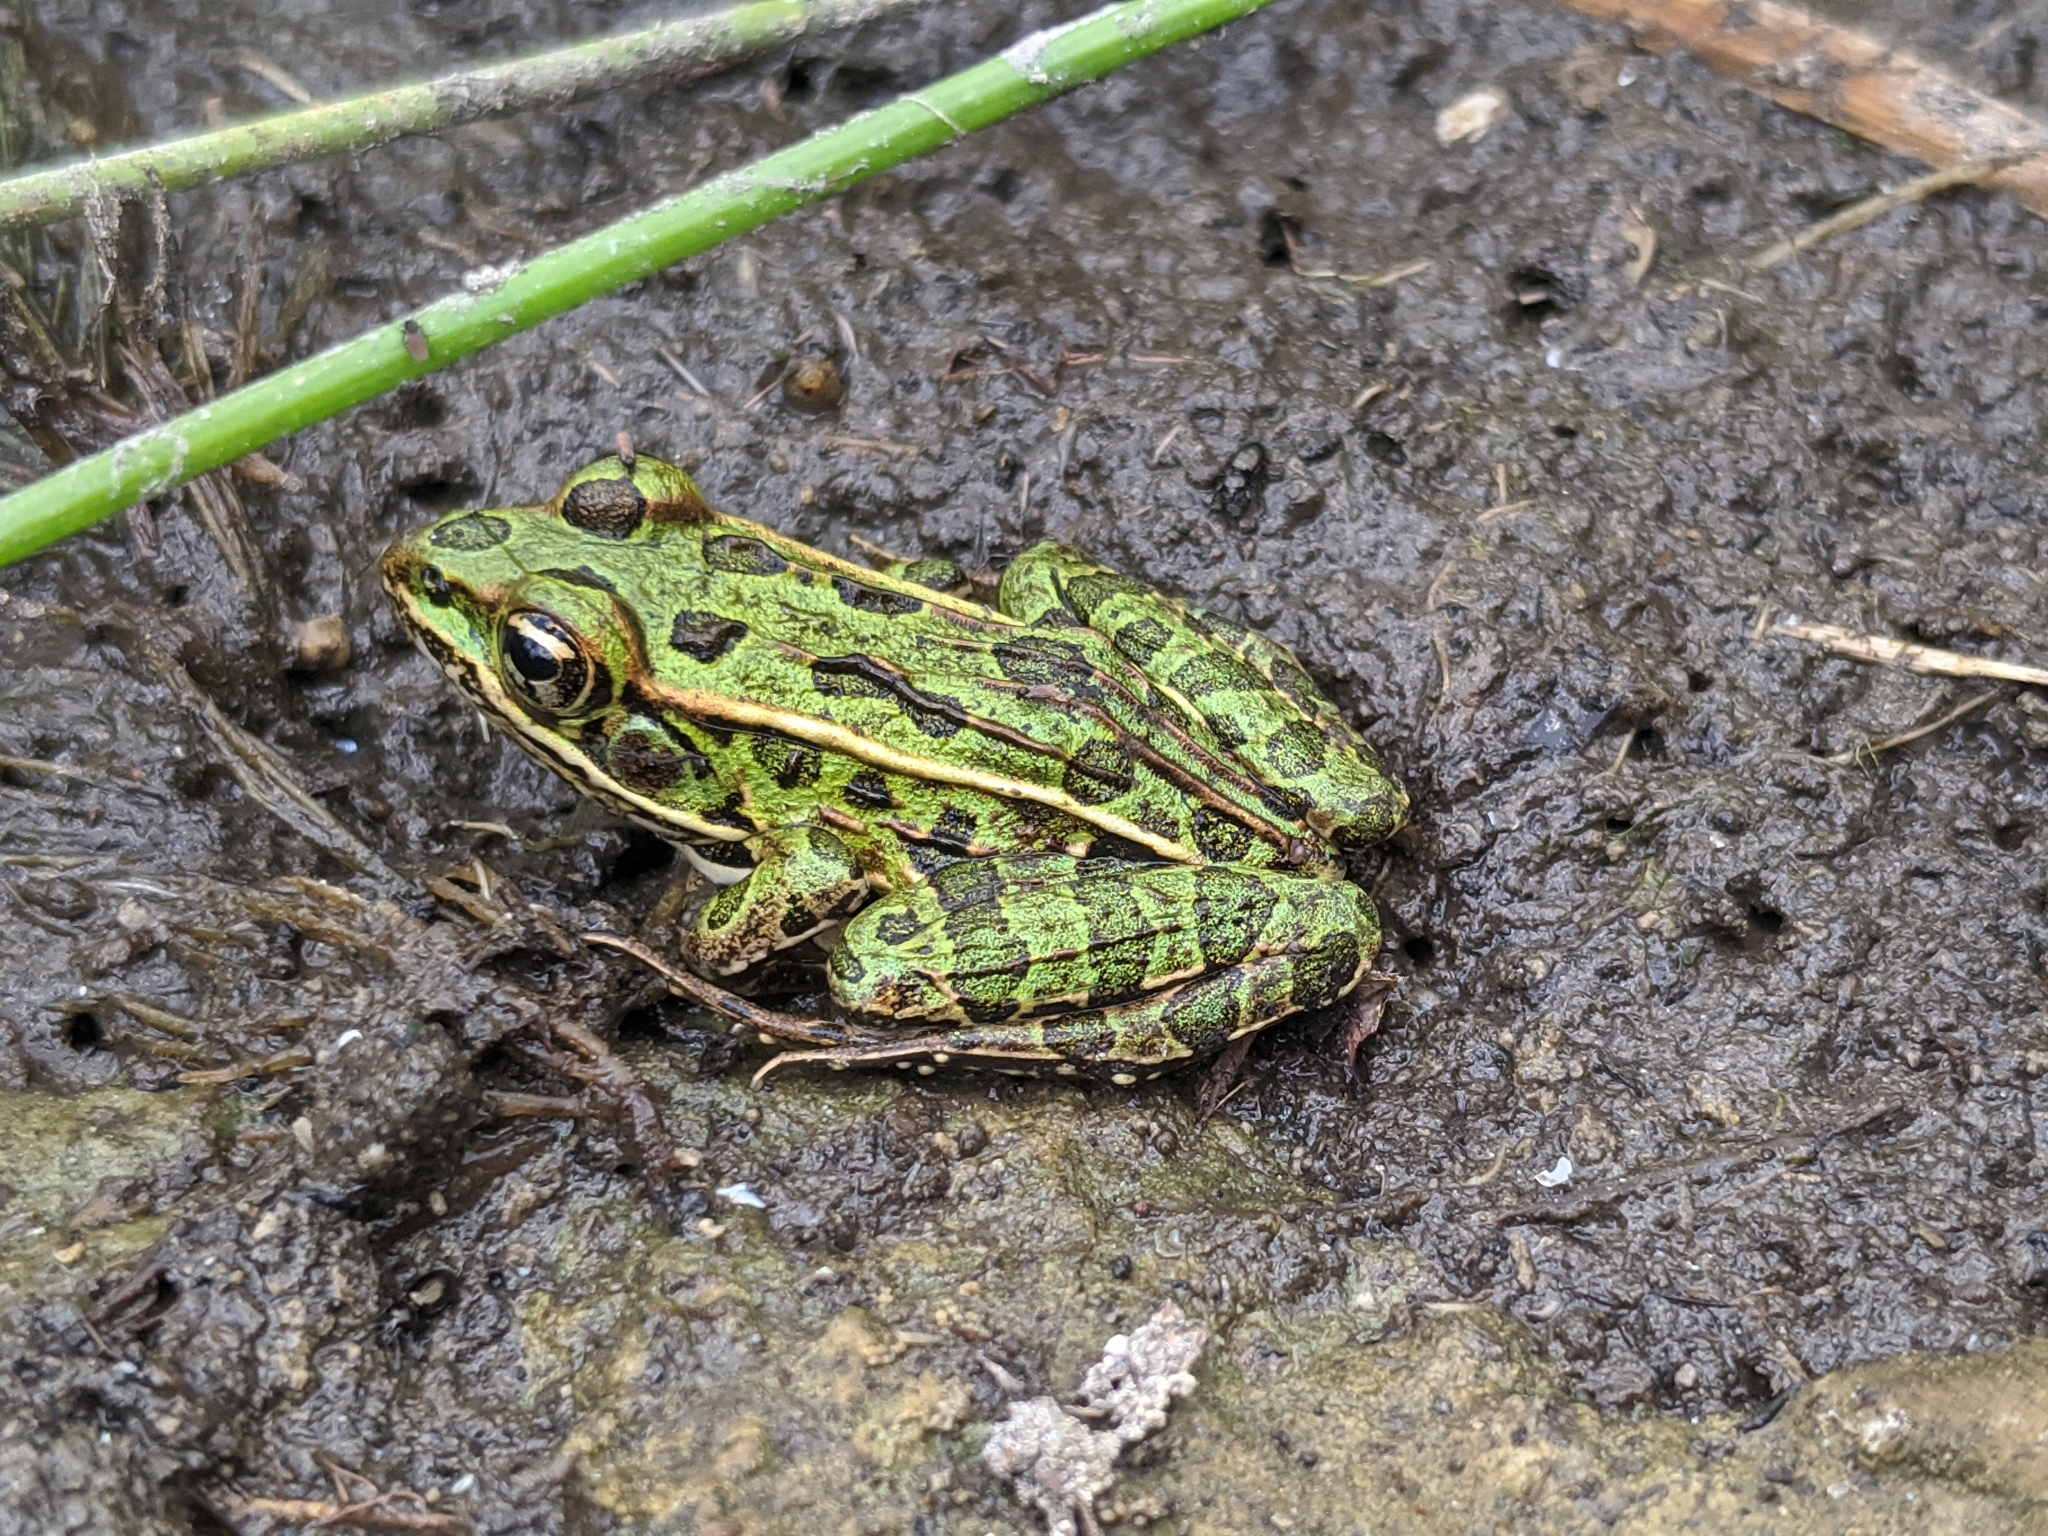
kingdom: Animalia
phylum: Chordata
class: Amphibia
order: Anura
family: Ranidae
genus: Lithobates
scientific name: Lithobates pipiens
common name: Northern leopard frog
